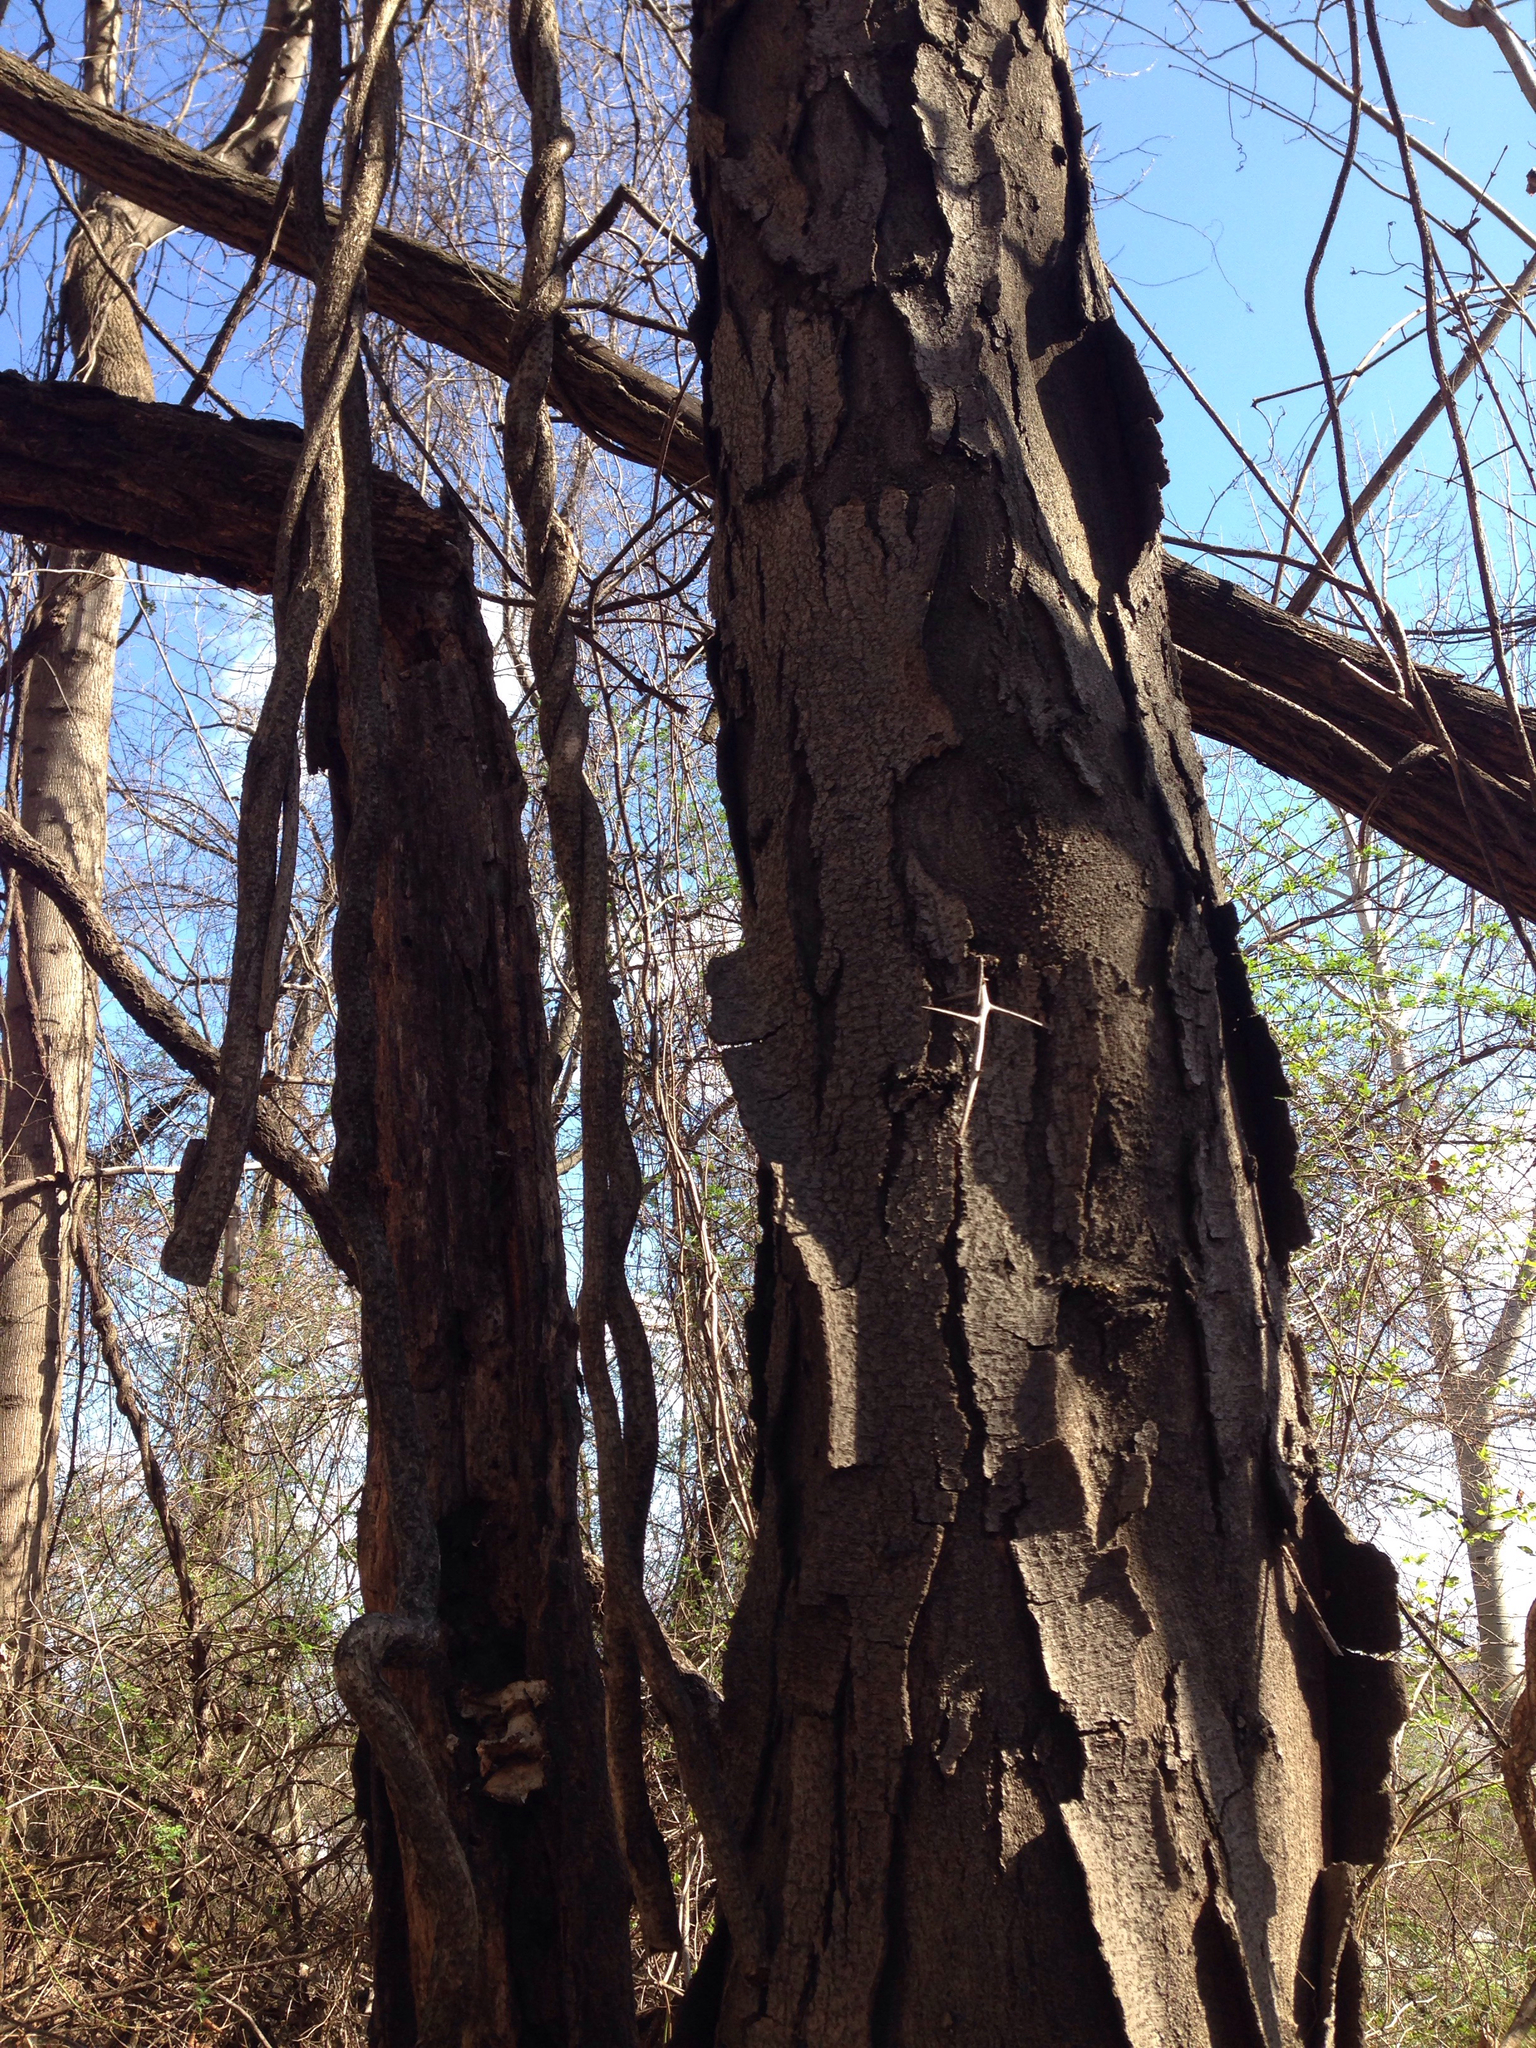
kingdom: Plantae
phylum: Tracheophyta
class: Magnoliopsida
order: Fabales
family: Fabaceae
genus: Gleditsia
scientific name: Gleditsia triacanthos
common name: Common honeylocust
